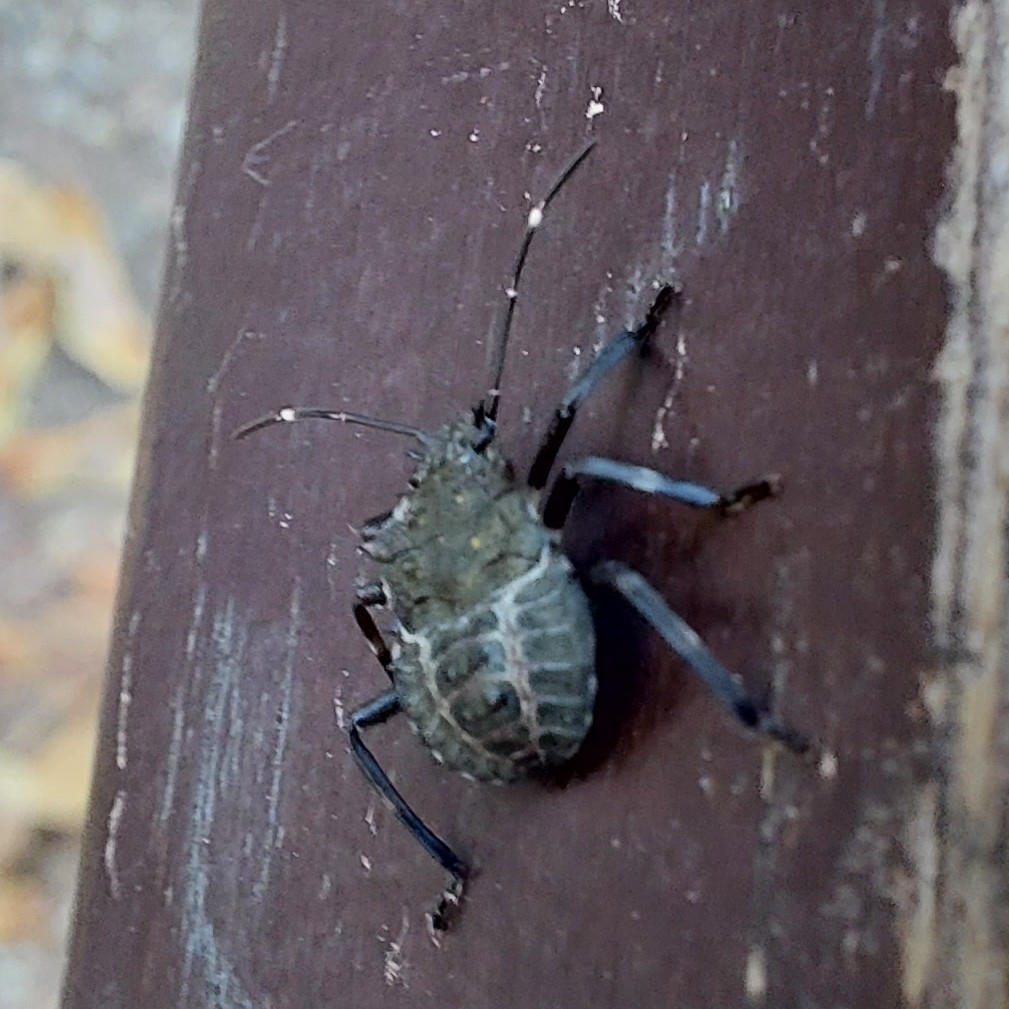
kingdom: Animalia
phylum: Arthropoda
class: Insecta
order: Hemiptera
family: Pentatomidae
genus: Halyomorpha
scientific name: Halyomorpha halys
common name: Brown marmorated stink bug
